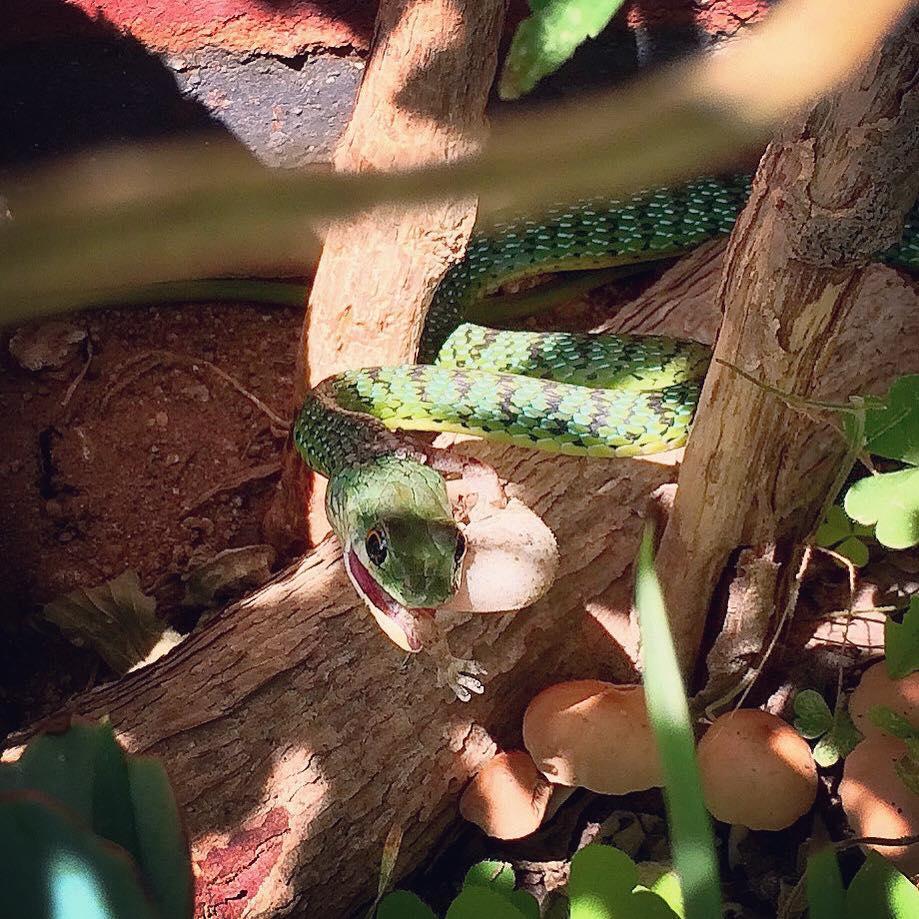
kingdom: Animalia
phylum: Chordata
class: Squamata
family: Gekkonidae
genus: Hemidactylus
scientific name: Hemidactylus mabouia
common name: House gecko
